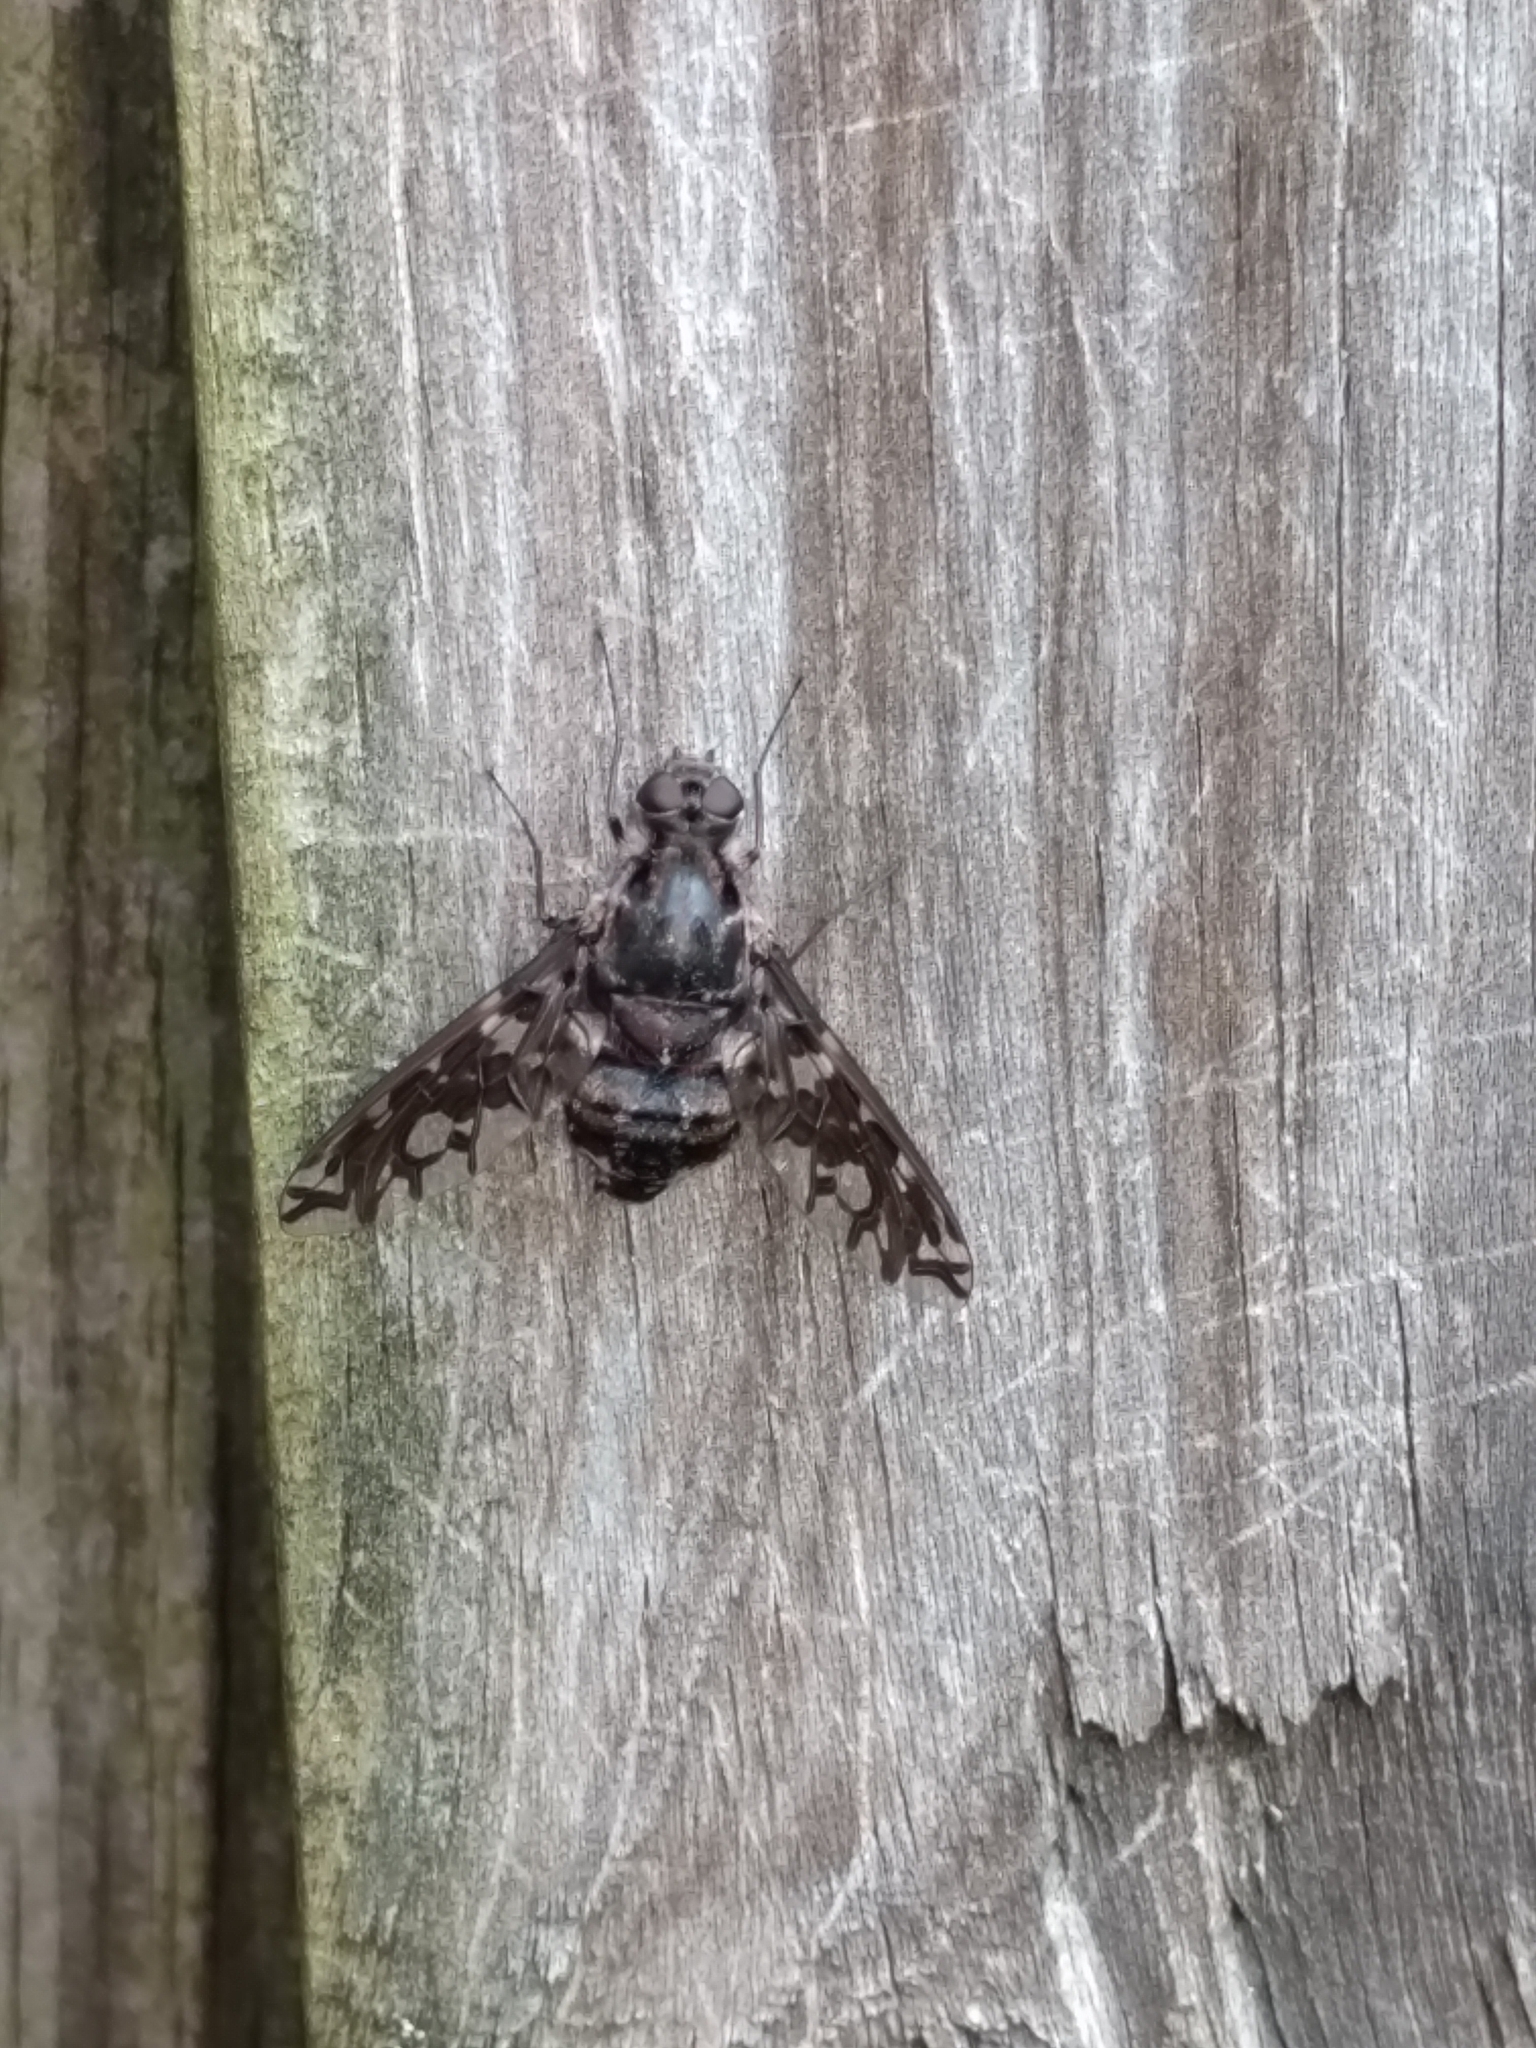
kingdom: Animalia
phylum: Arthropoda
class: Insecta
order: Diptera
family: Bombyliidae
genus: Xenox
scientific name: Xenox tigrinus
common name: Tiger bee fly
